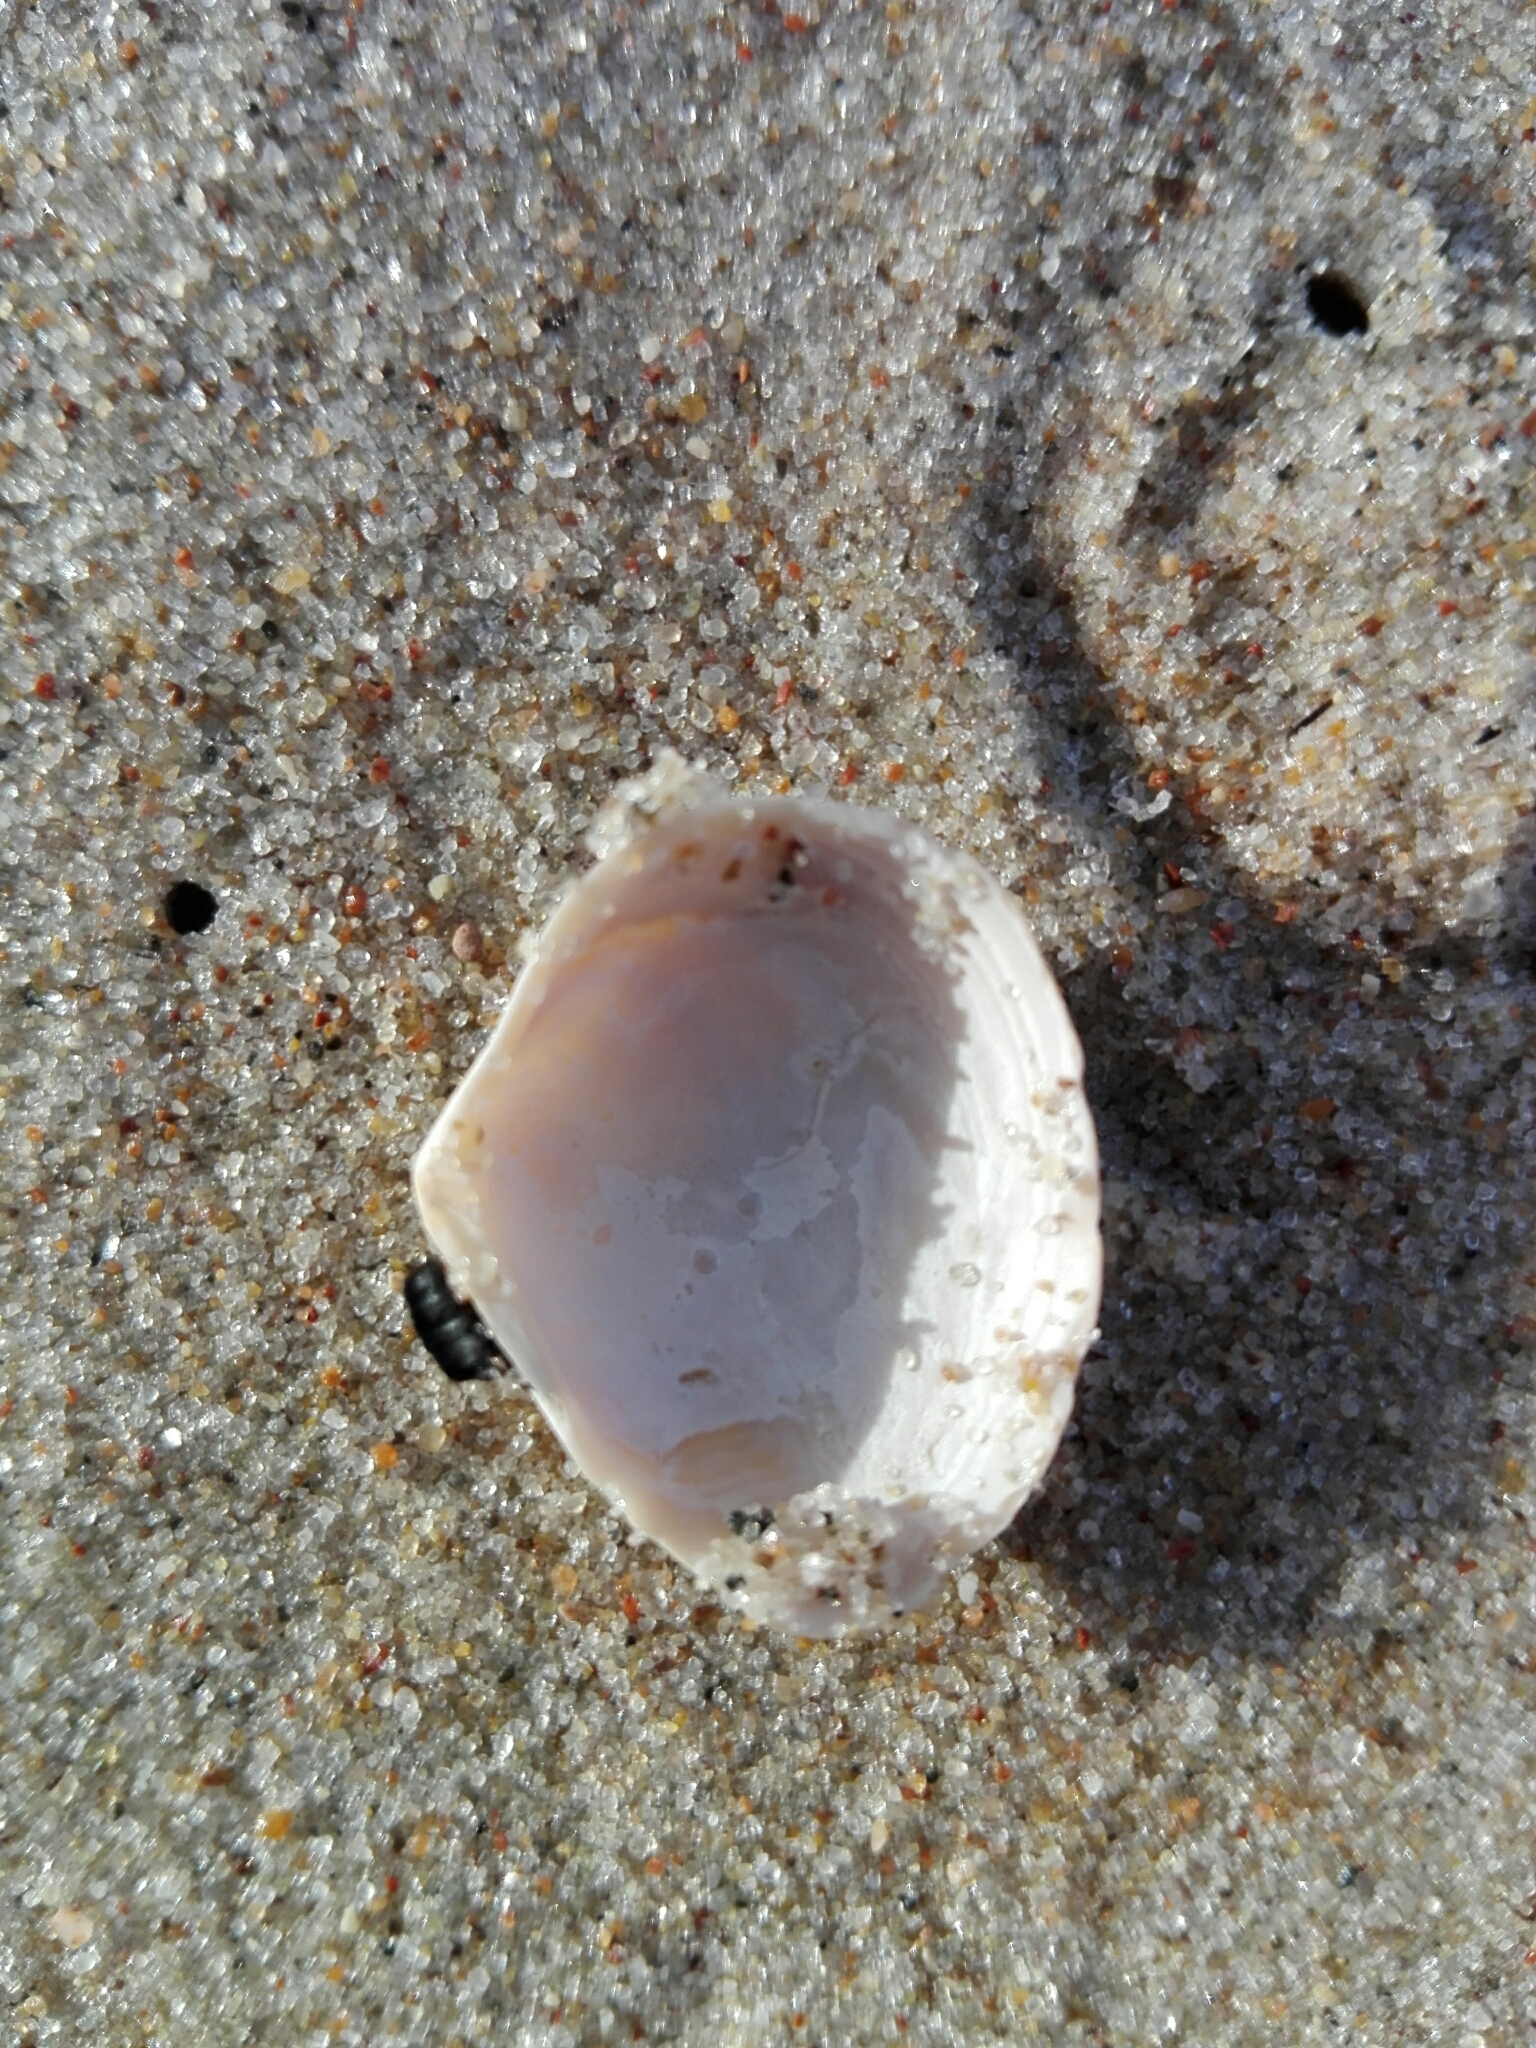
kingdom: Animalia
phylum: Mollusca
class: Bivalvia
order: Cardiida
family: Tellinidae
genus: Macoma
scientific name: Macoma balthica
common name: Baltic tellin
